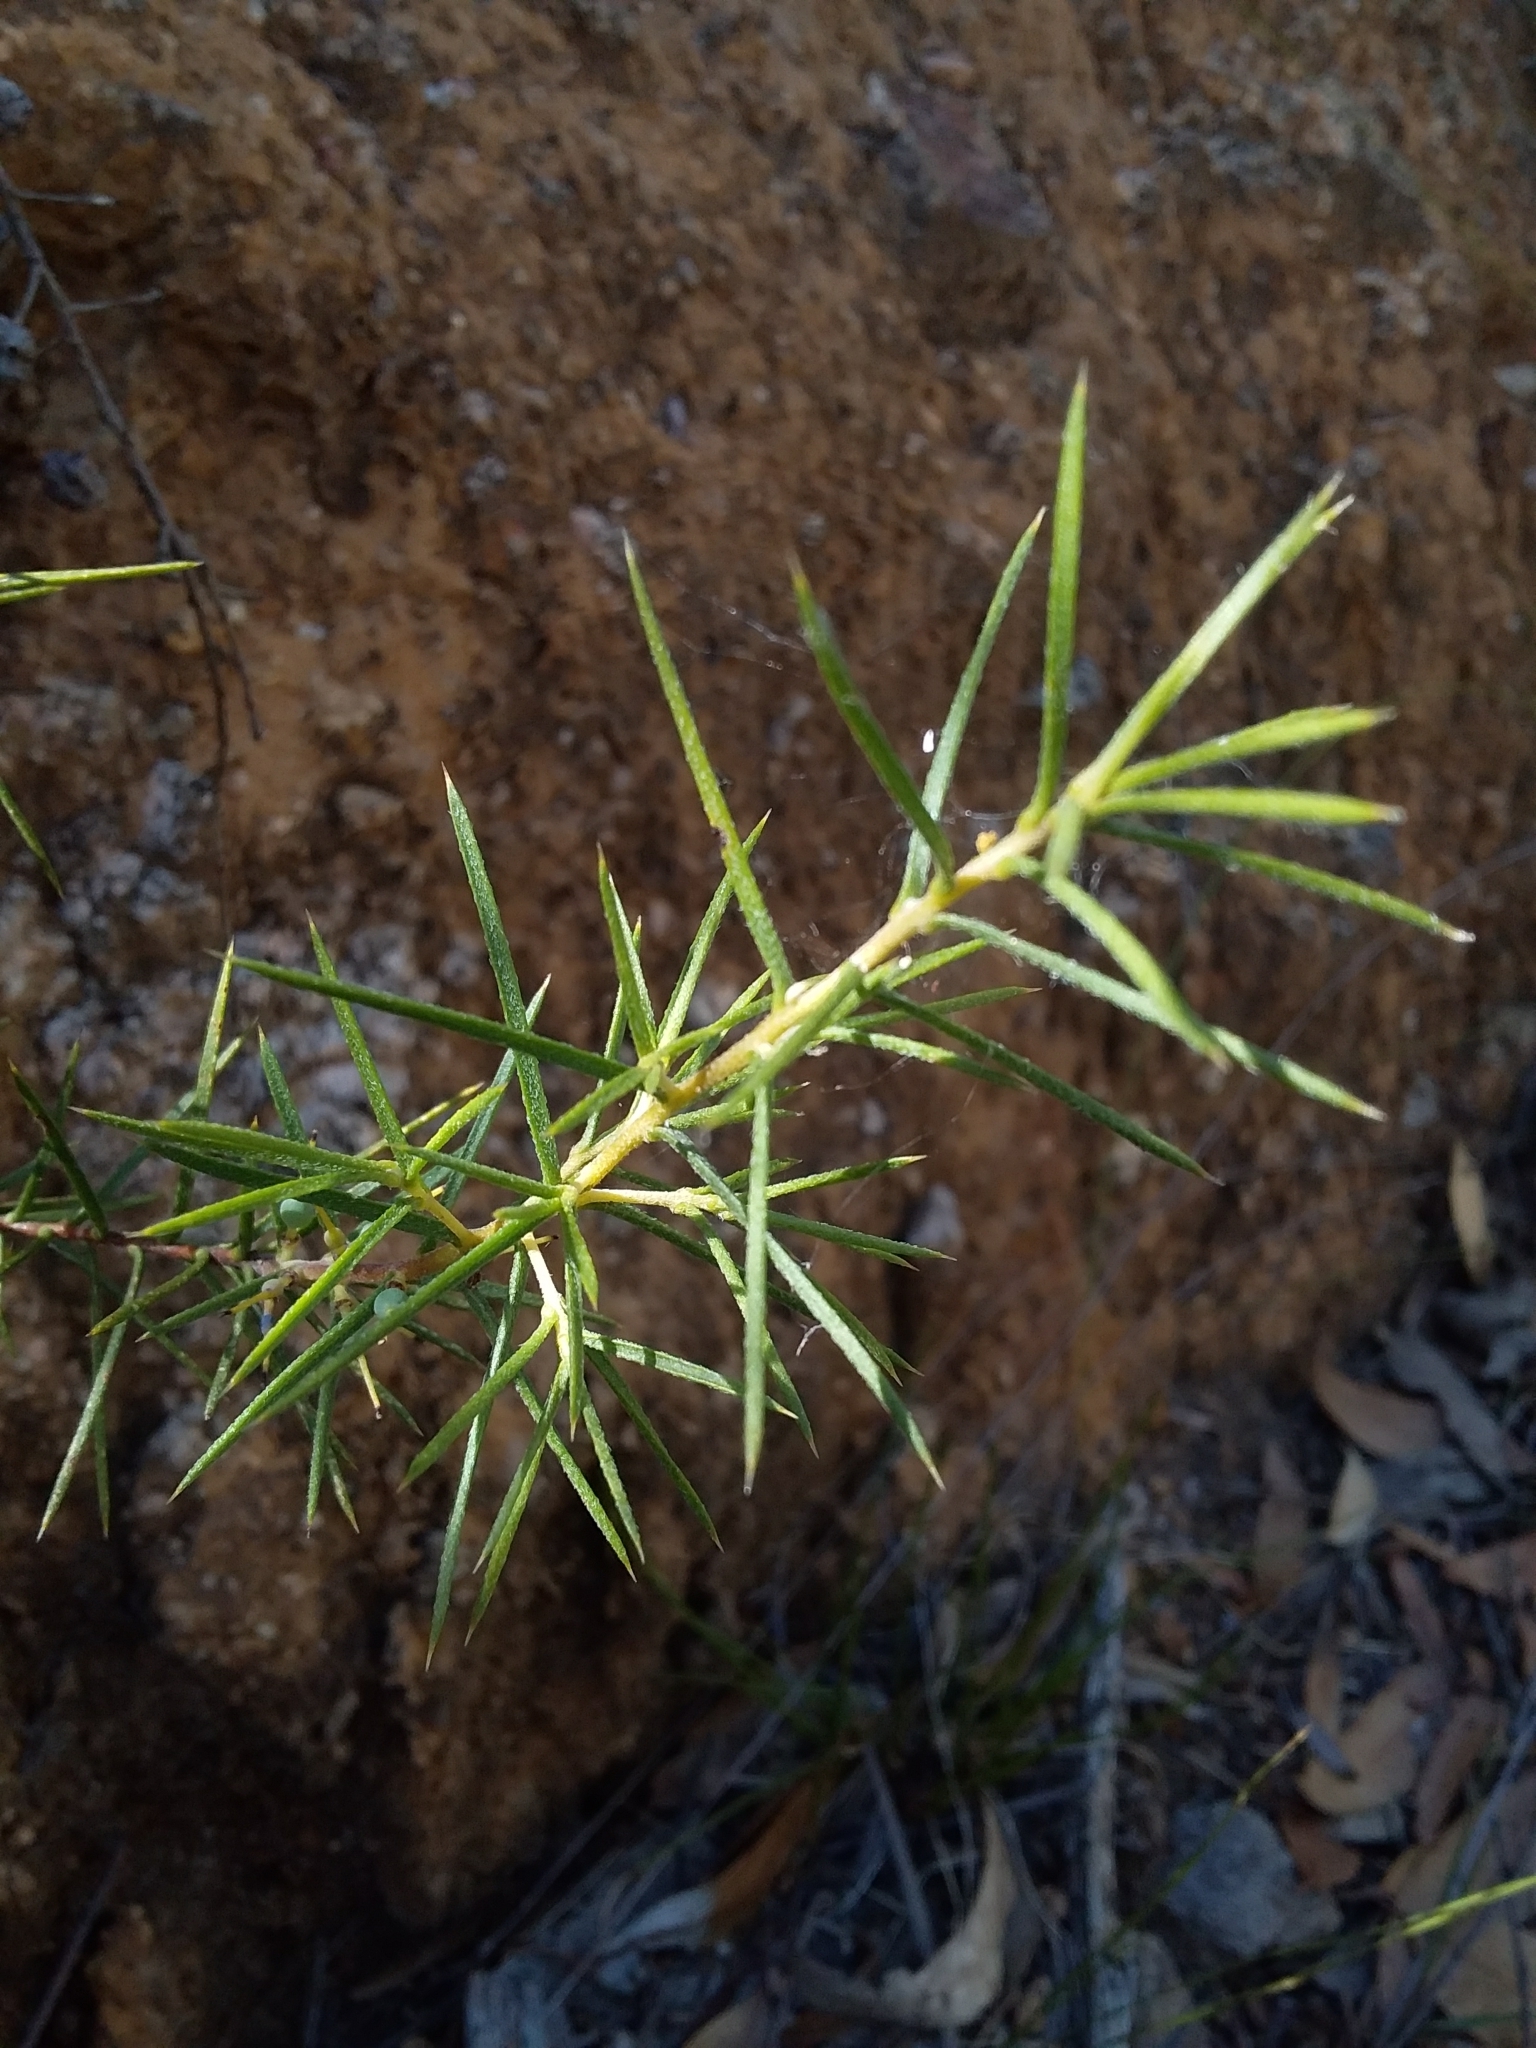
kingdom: Plantae
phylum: Tracheophyta
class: Magnoliopsida
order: Proteales
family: Proteaceae
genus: Persoonia
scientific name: Persoonia juniperina
